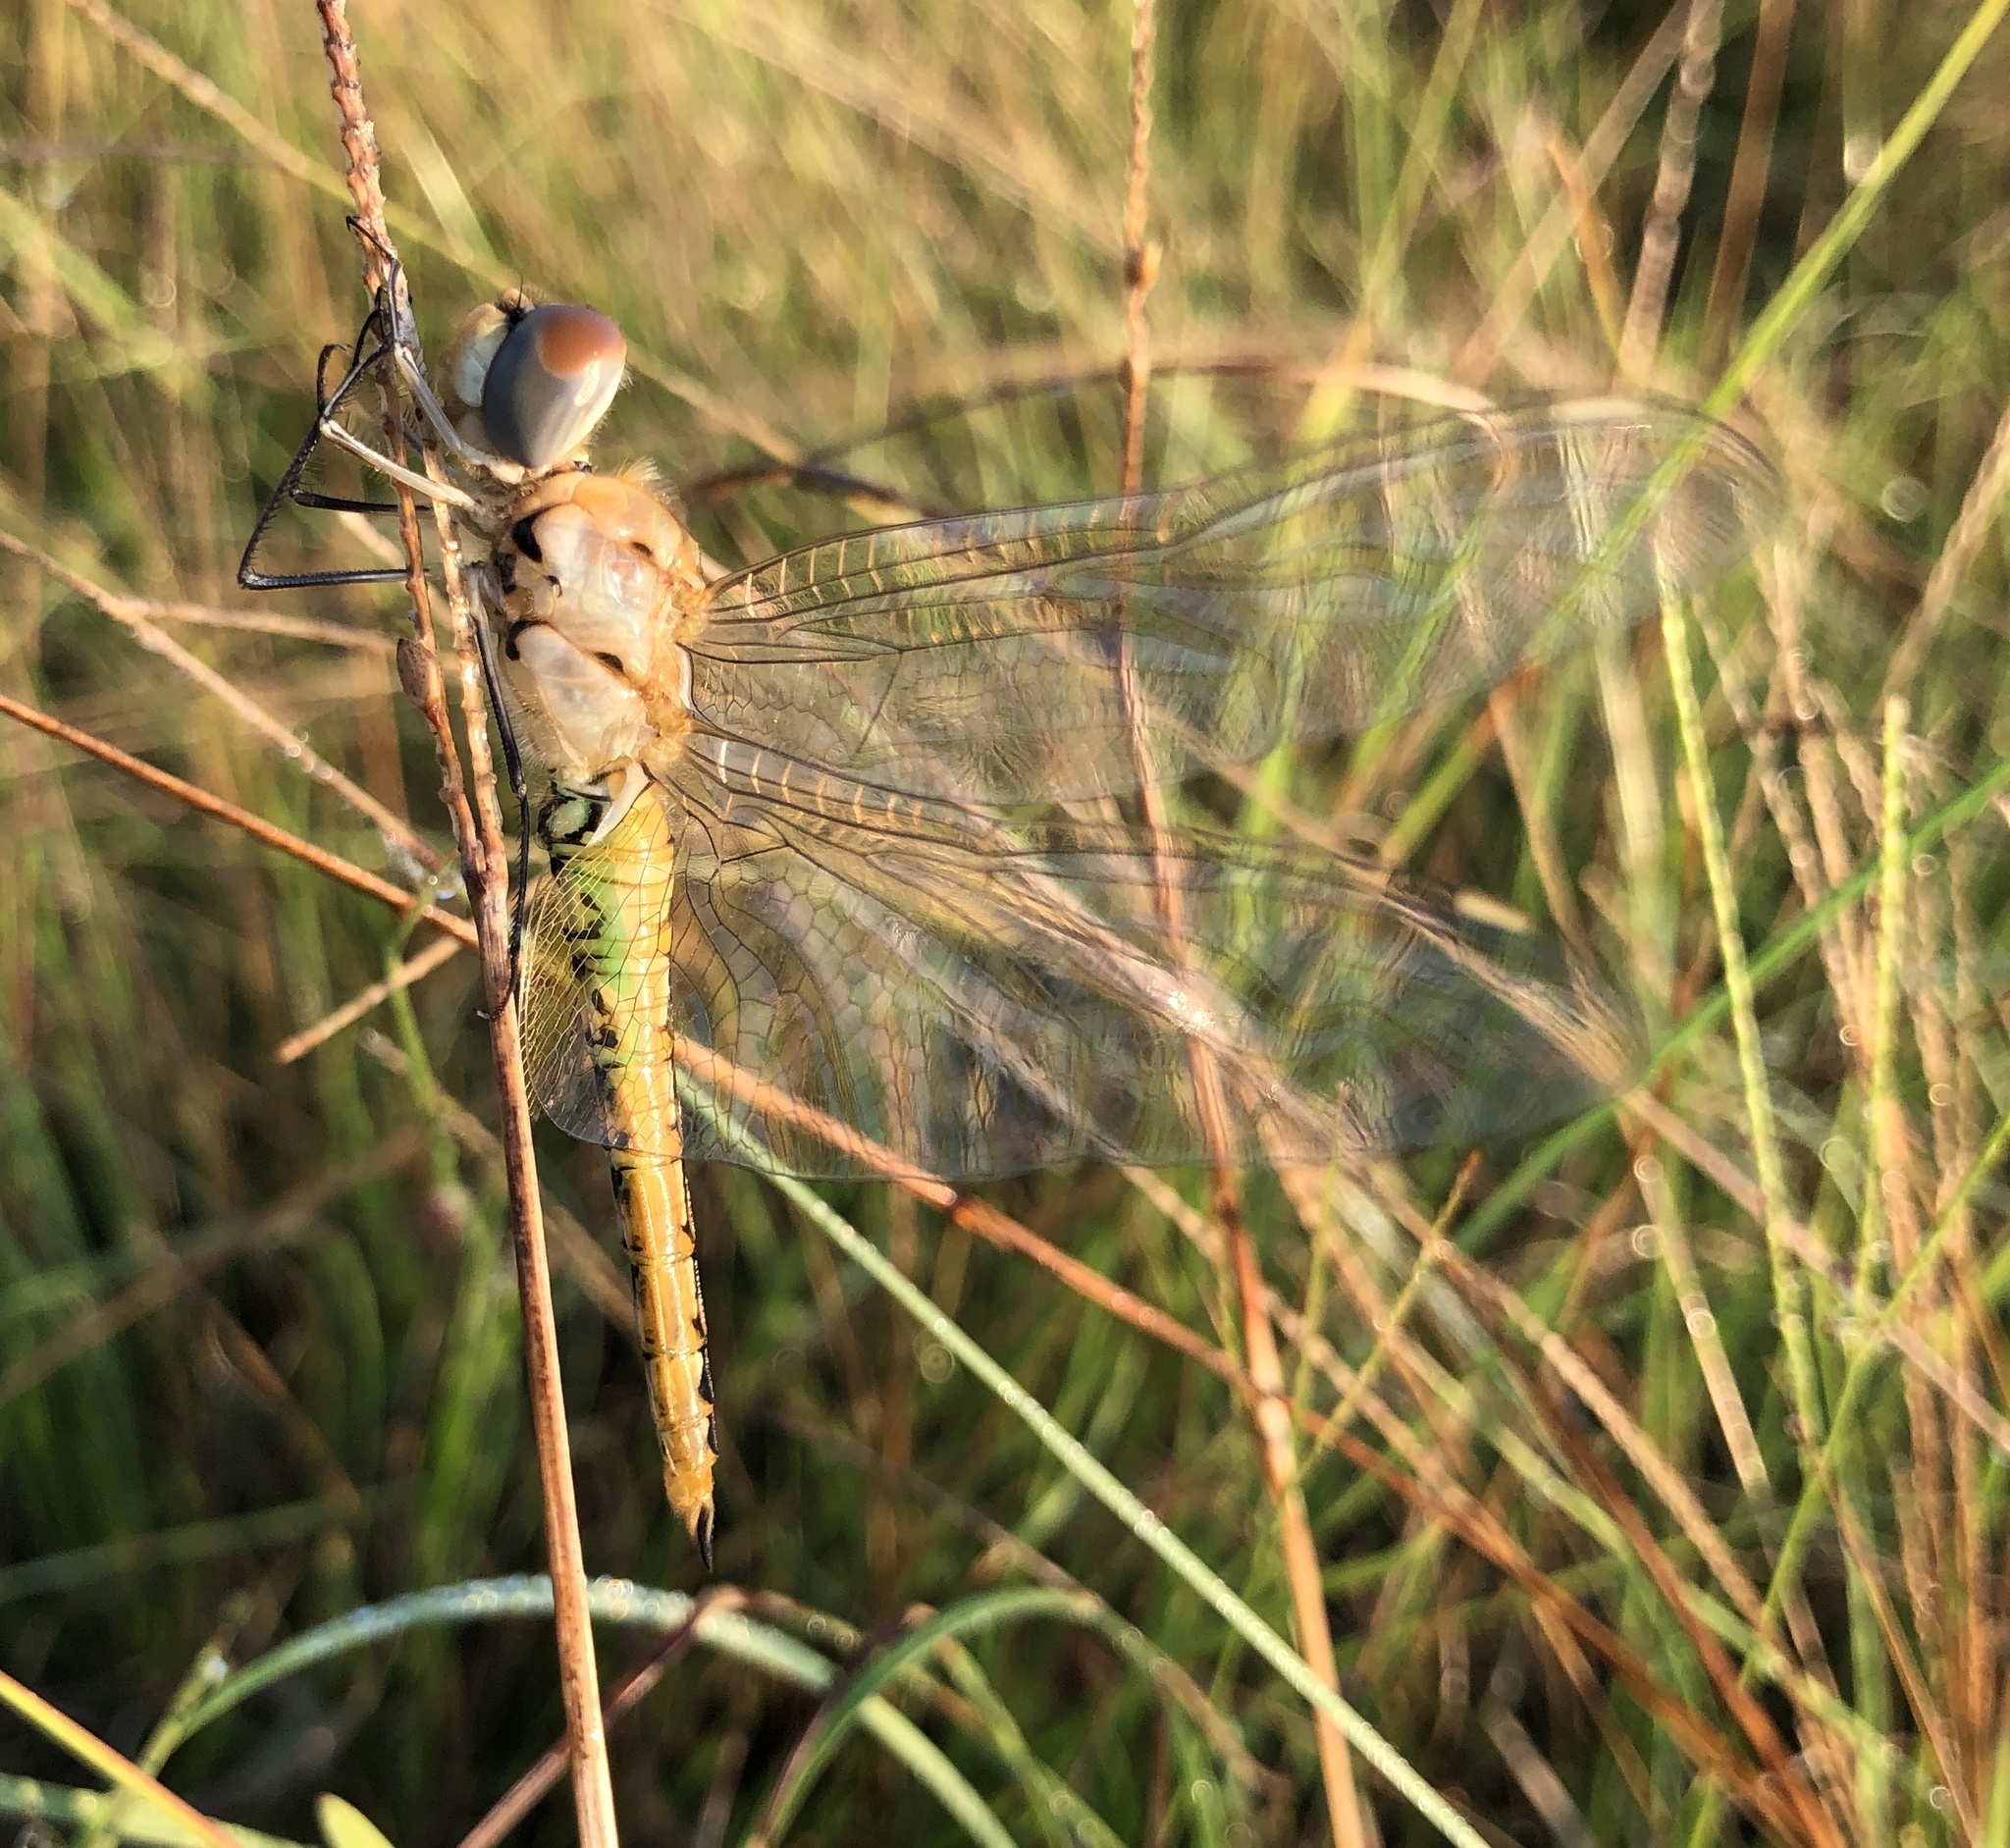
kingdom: Animalia
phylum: Arthropoda
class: Insecta
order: Odonata
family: Libellulidae
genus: Pantala
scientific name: Pantala flavescens
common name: Wandering glider
